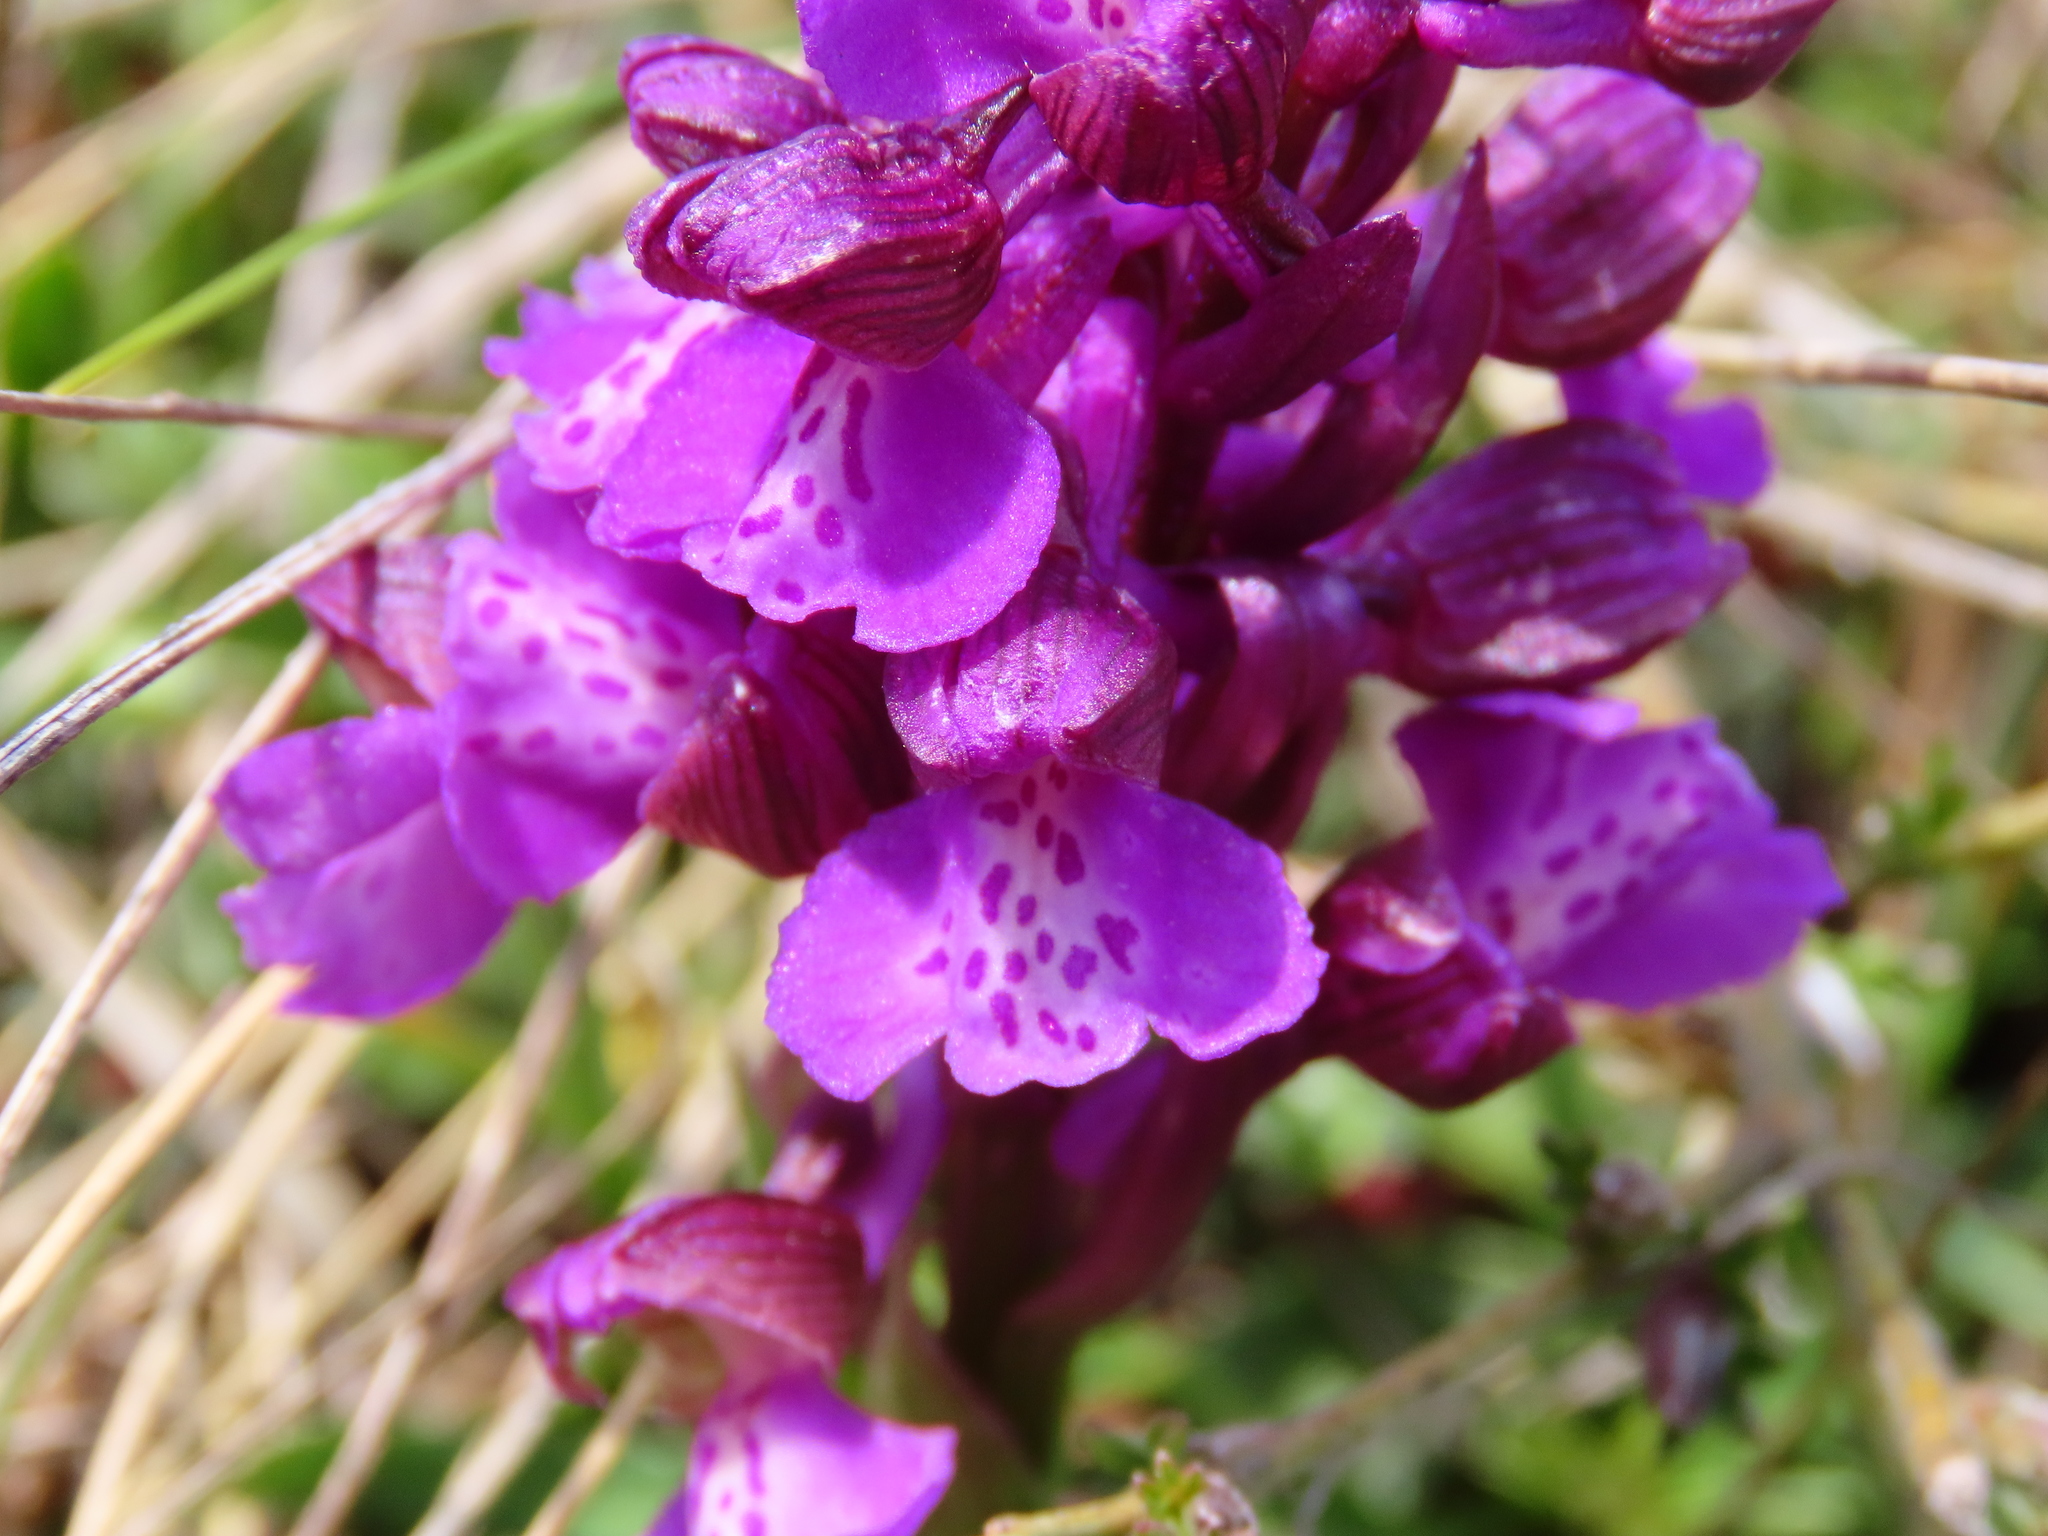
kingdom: Plantae
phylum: Tracheophyta
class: Liliopsida
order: Asparagales
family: Orchidaceae
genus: Anacamptis
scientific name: Anacamptis morio
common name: Green-winged orchid
